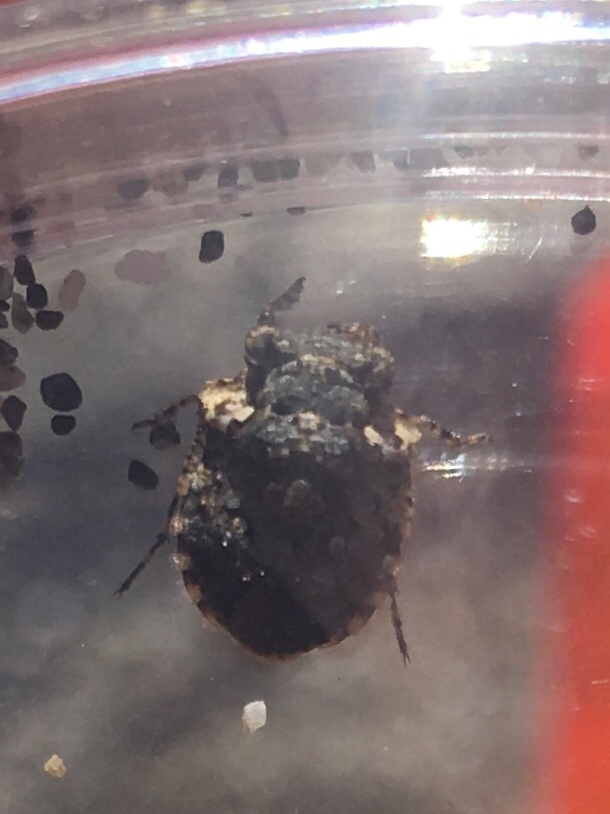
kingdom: Animalia
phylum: Arthropoda
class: Insecta
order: Hemiptera
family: Gelastocoridae
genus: Gelastocoris
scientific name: Gelastocoris oculatus
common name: Toad bug
